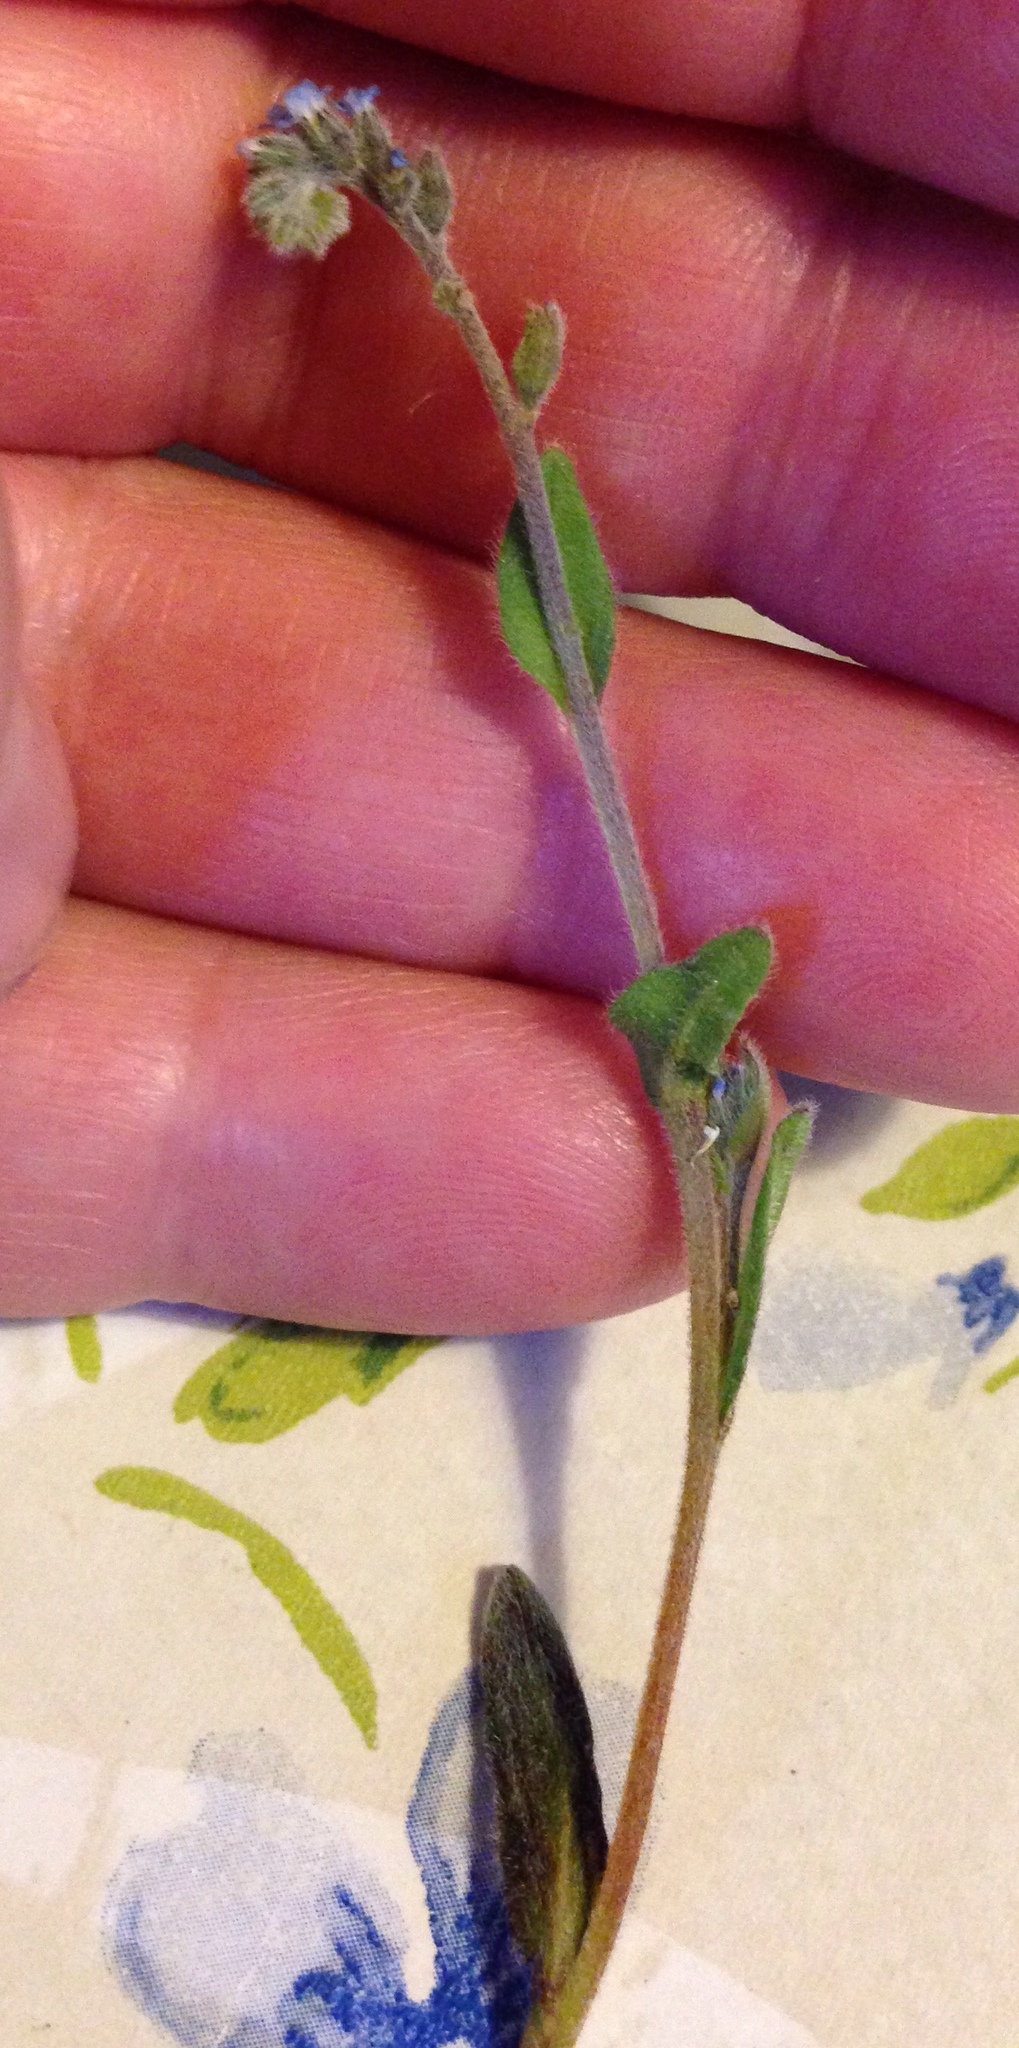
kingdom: Plantae
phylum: Tracheophyta
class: Magnoliopsida
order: Boraginales
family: Boraginaceae
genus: Myosotis
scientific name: Myosotis ramosissima
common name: Early forget-me-not
